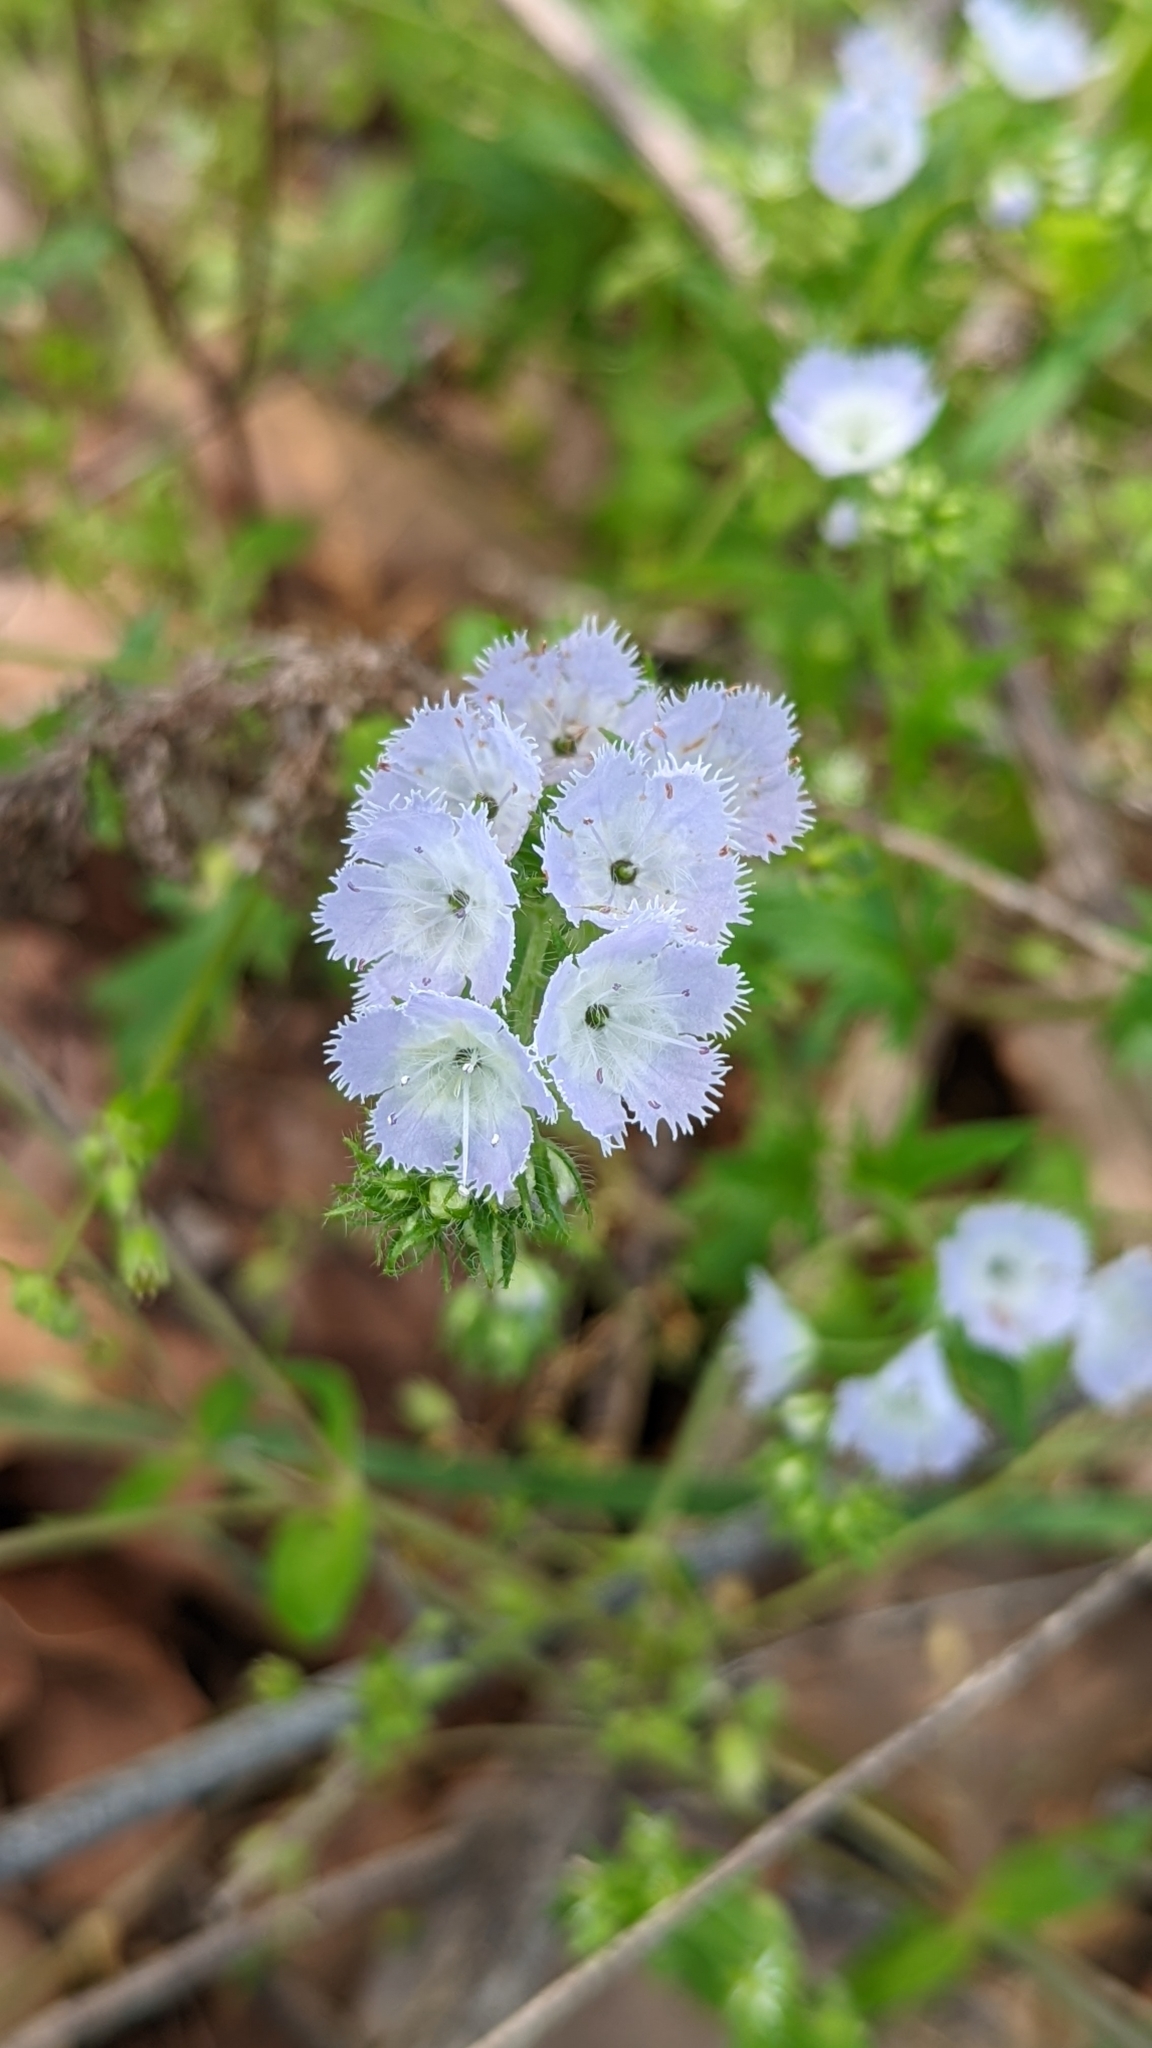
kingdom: Plantae
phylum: Tracheophyta
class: Magnoliopsida
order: Boraginales
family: Hydrophyllaceae
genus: Phacelia
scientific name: Phacelia purshii
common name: Miami-mist
